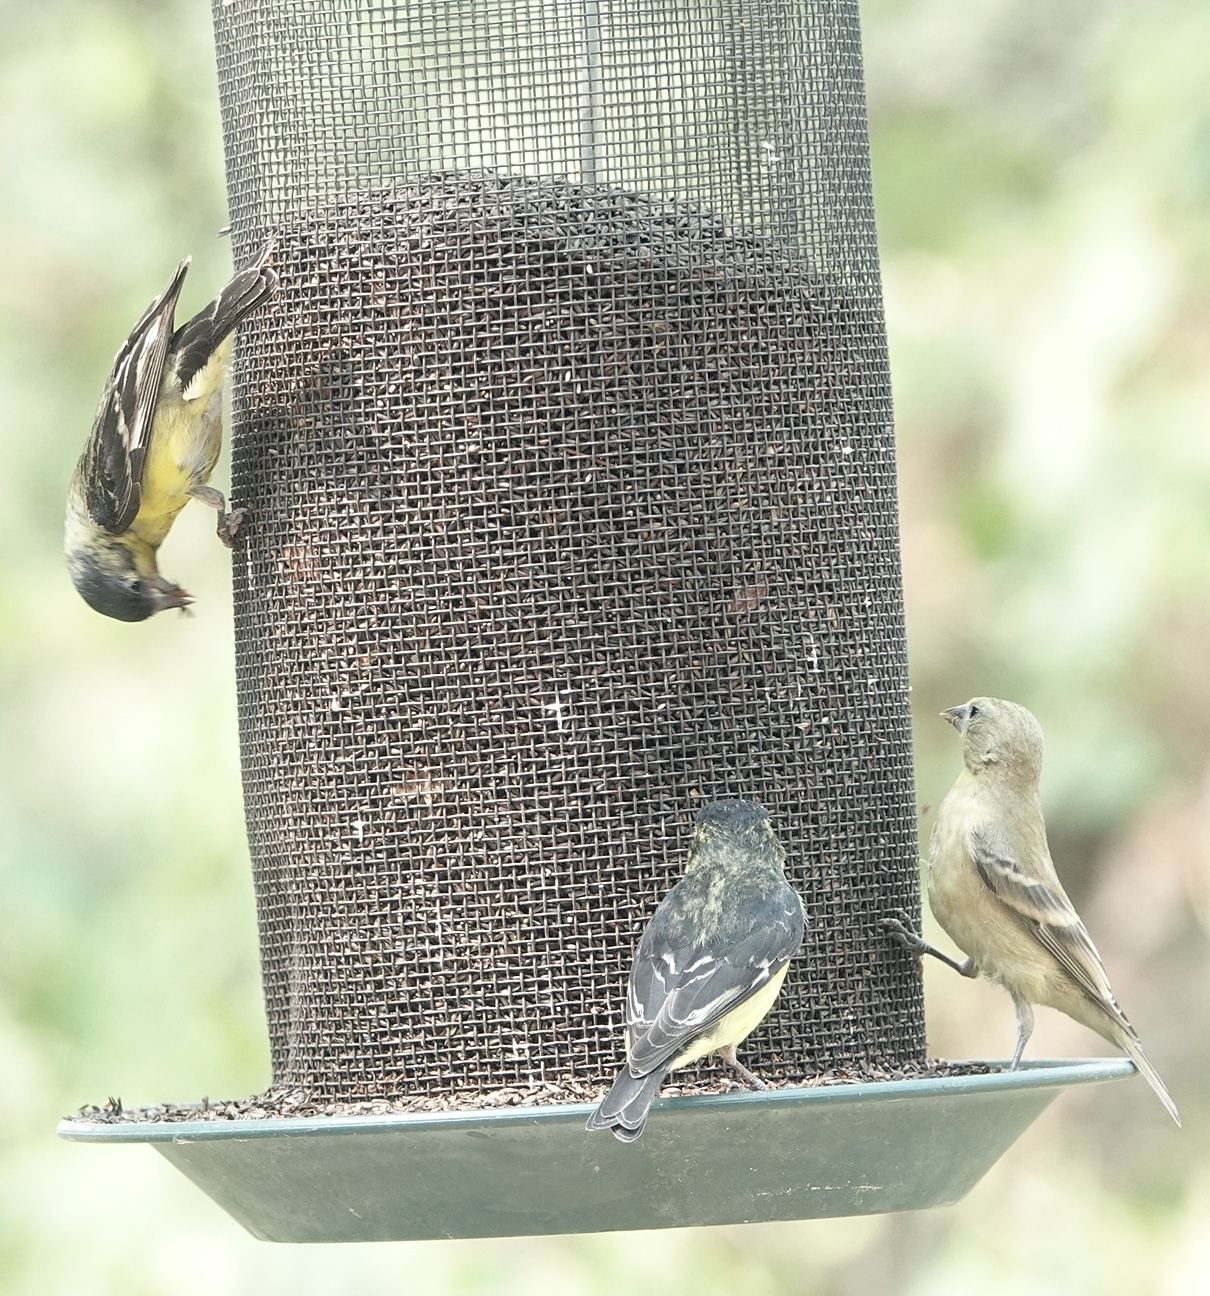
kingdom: Animalia
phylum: Chordata
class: Aves
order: Passeriformes
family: Fringillidae
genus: Spinus
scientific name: Spinus psaltria
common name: Lesser goldfinch
